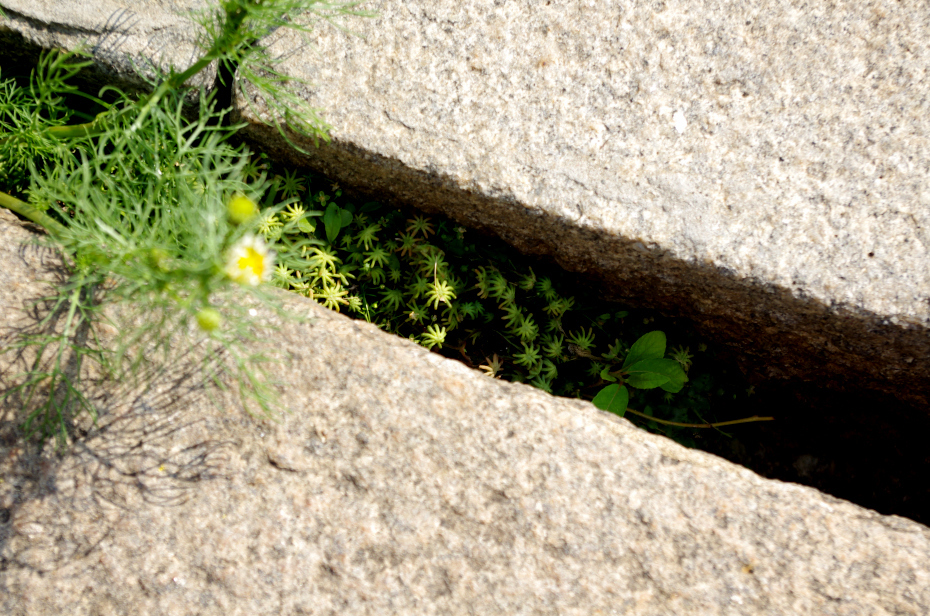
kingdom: Plantae
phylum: Marchantiophyta
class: Marchantiopsida
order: Marchantiales
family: Marchantiaceae
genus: Marchantia
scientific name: Marchantia polymorpha
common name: Common liverwort
